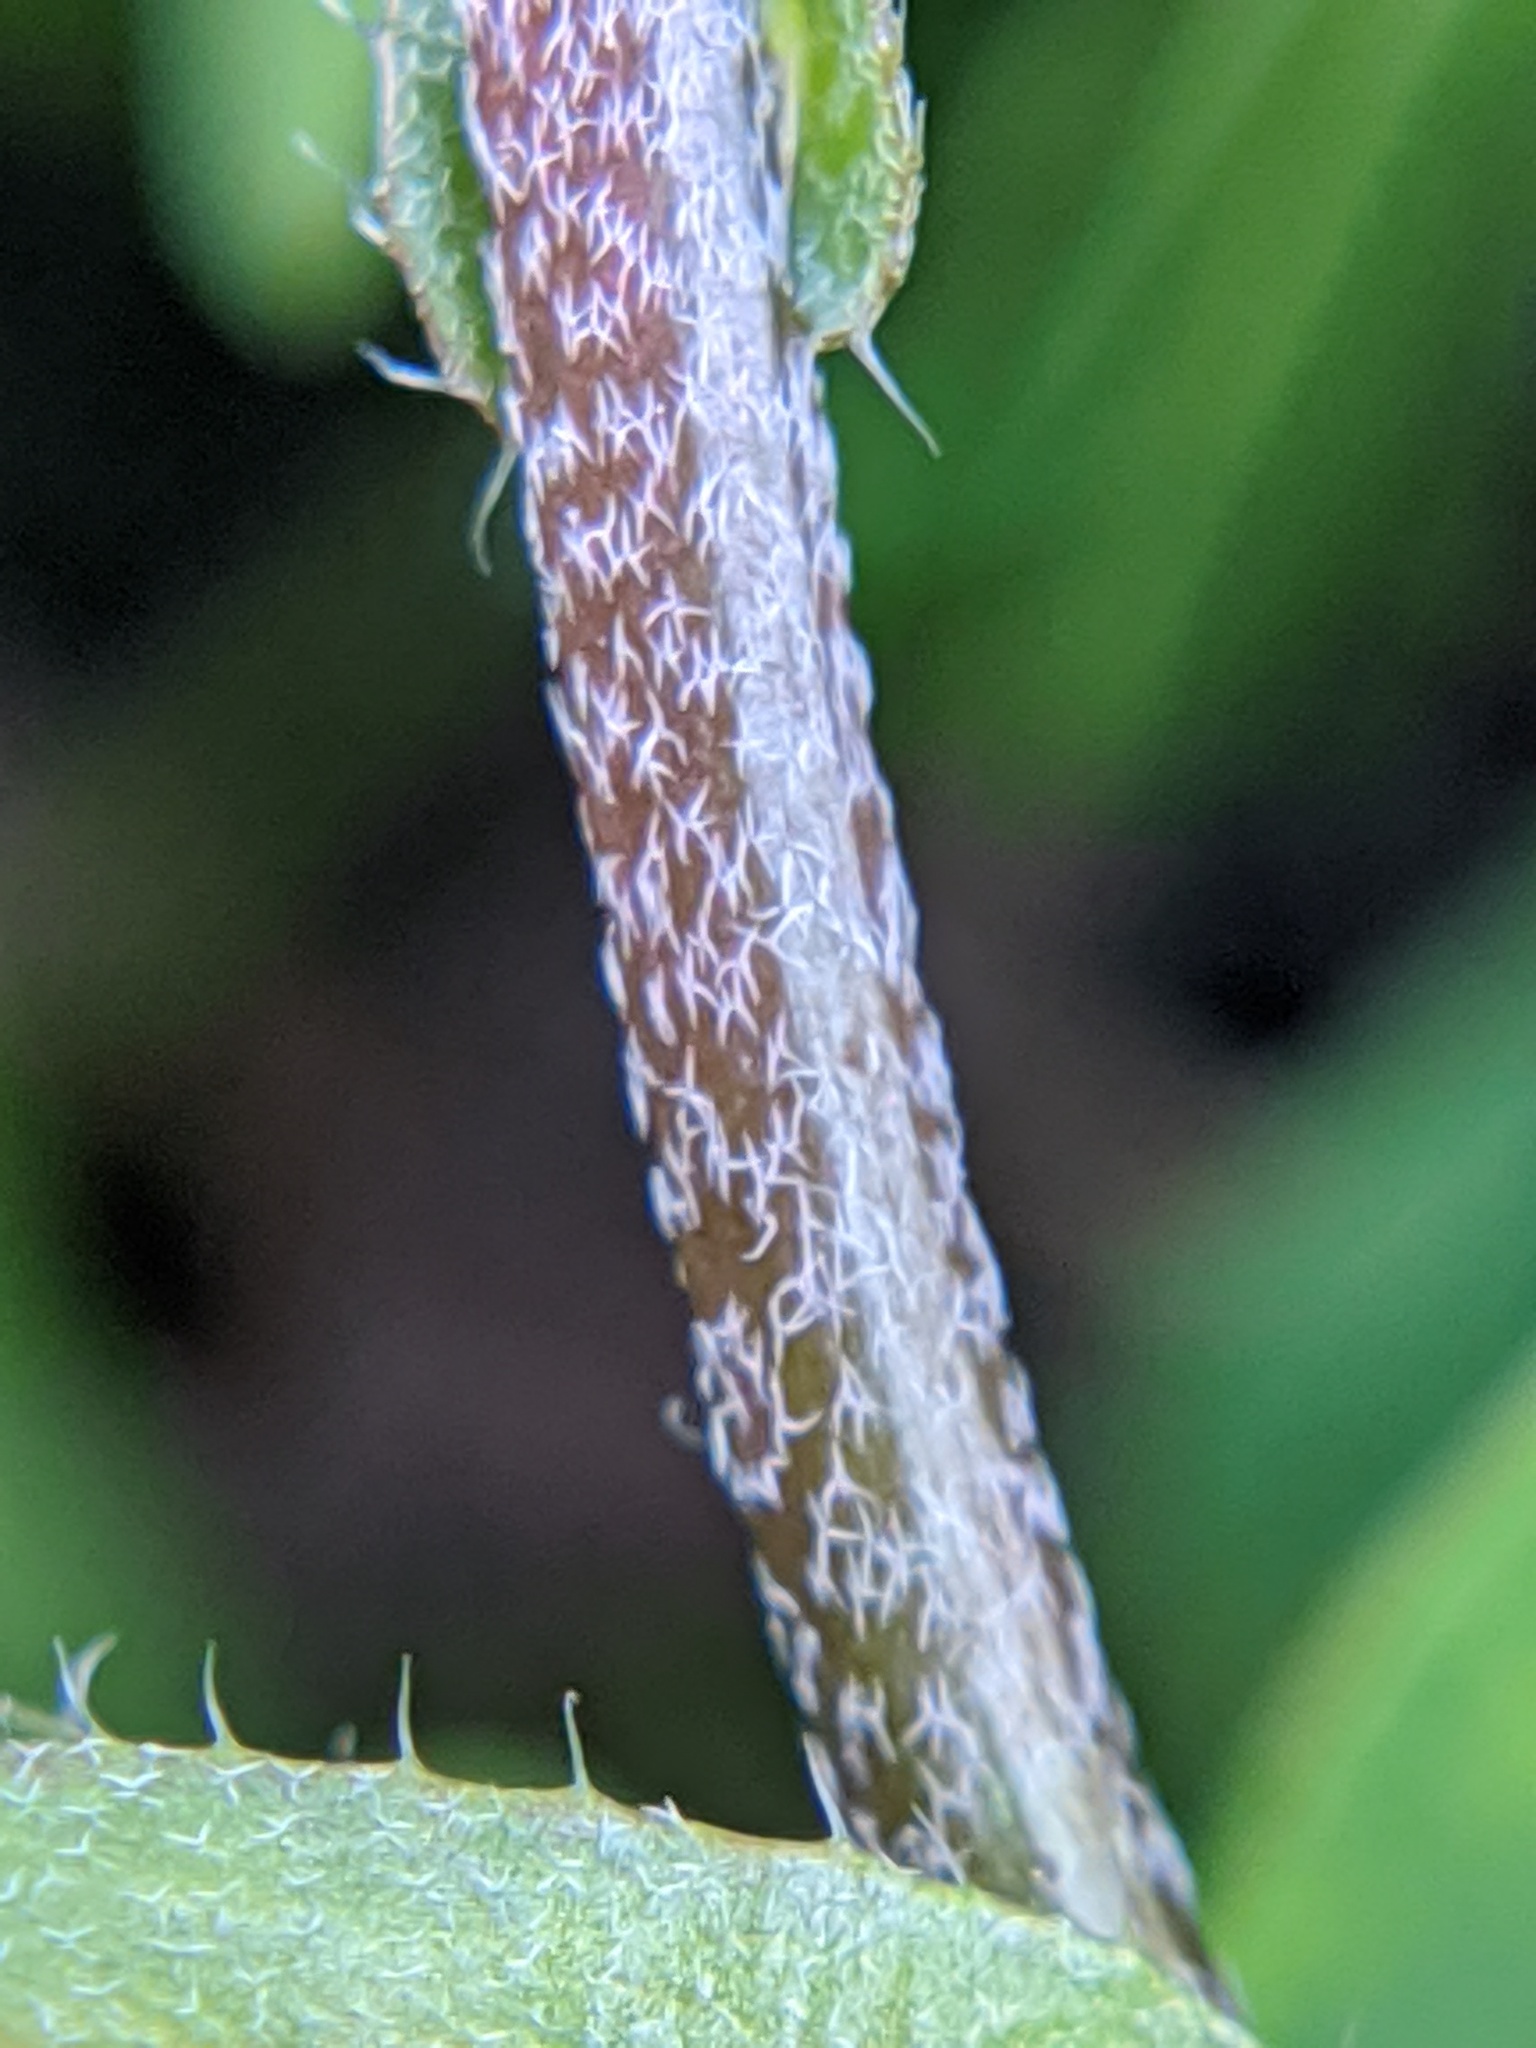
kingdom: Plantae
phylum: Tracheophyta
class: Magnoliopsida
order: Brassicales
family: Brassicaceae
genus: Capsella
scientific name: Capsella bursa-pastoris
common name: Shepherd's purse
